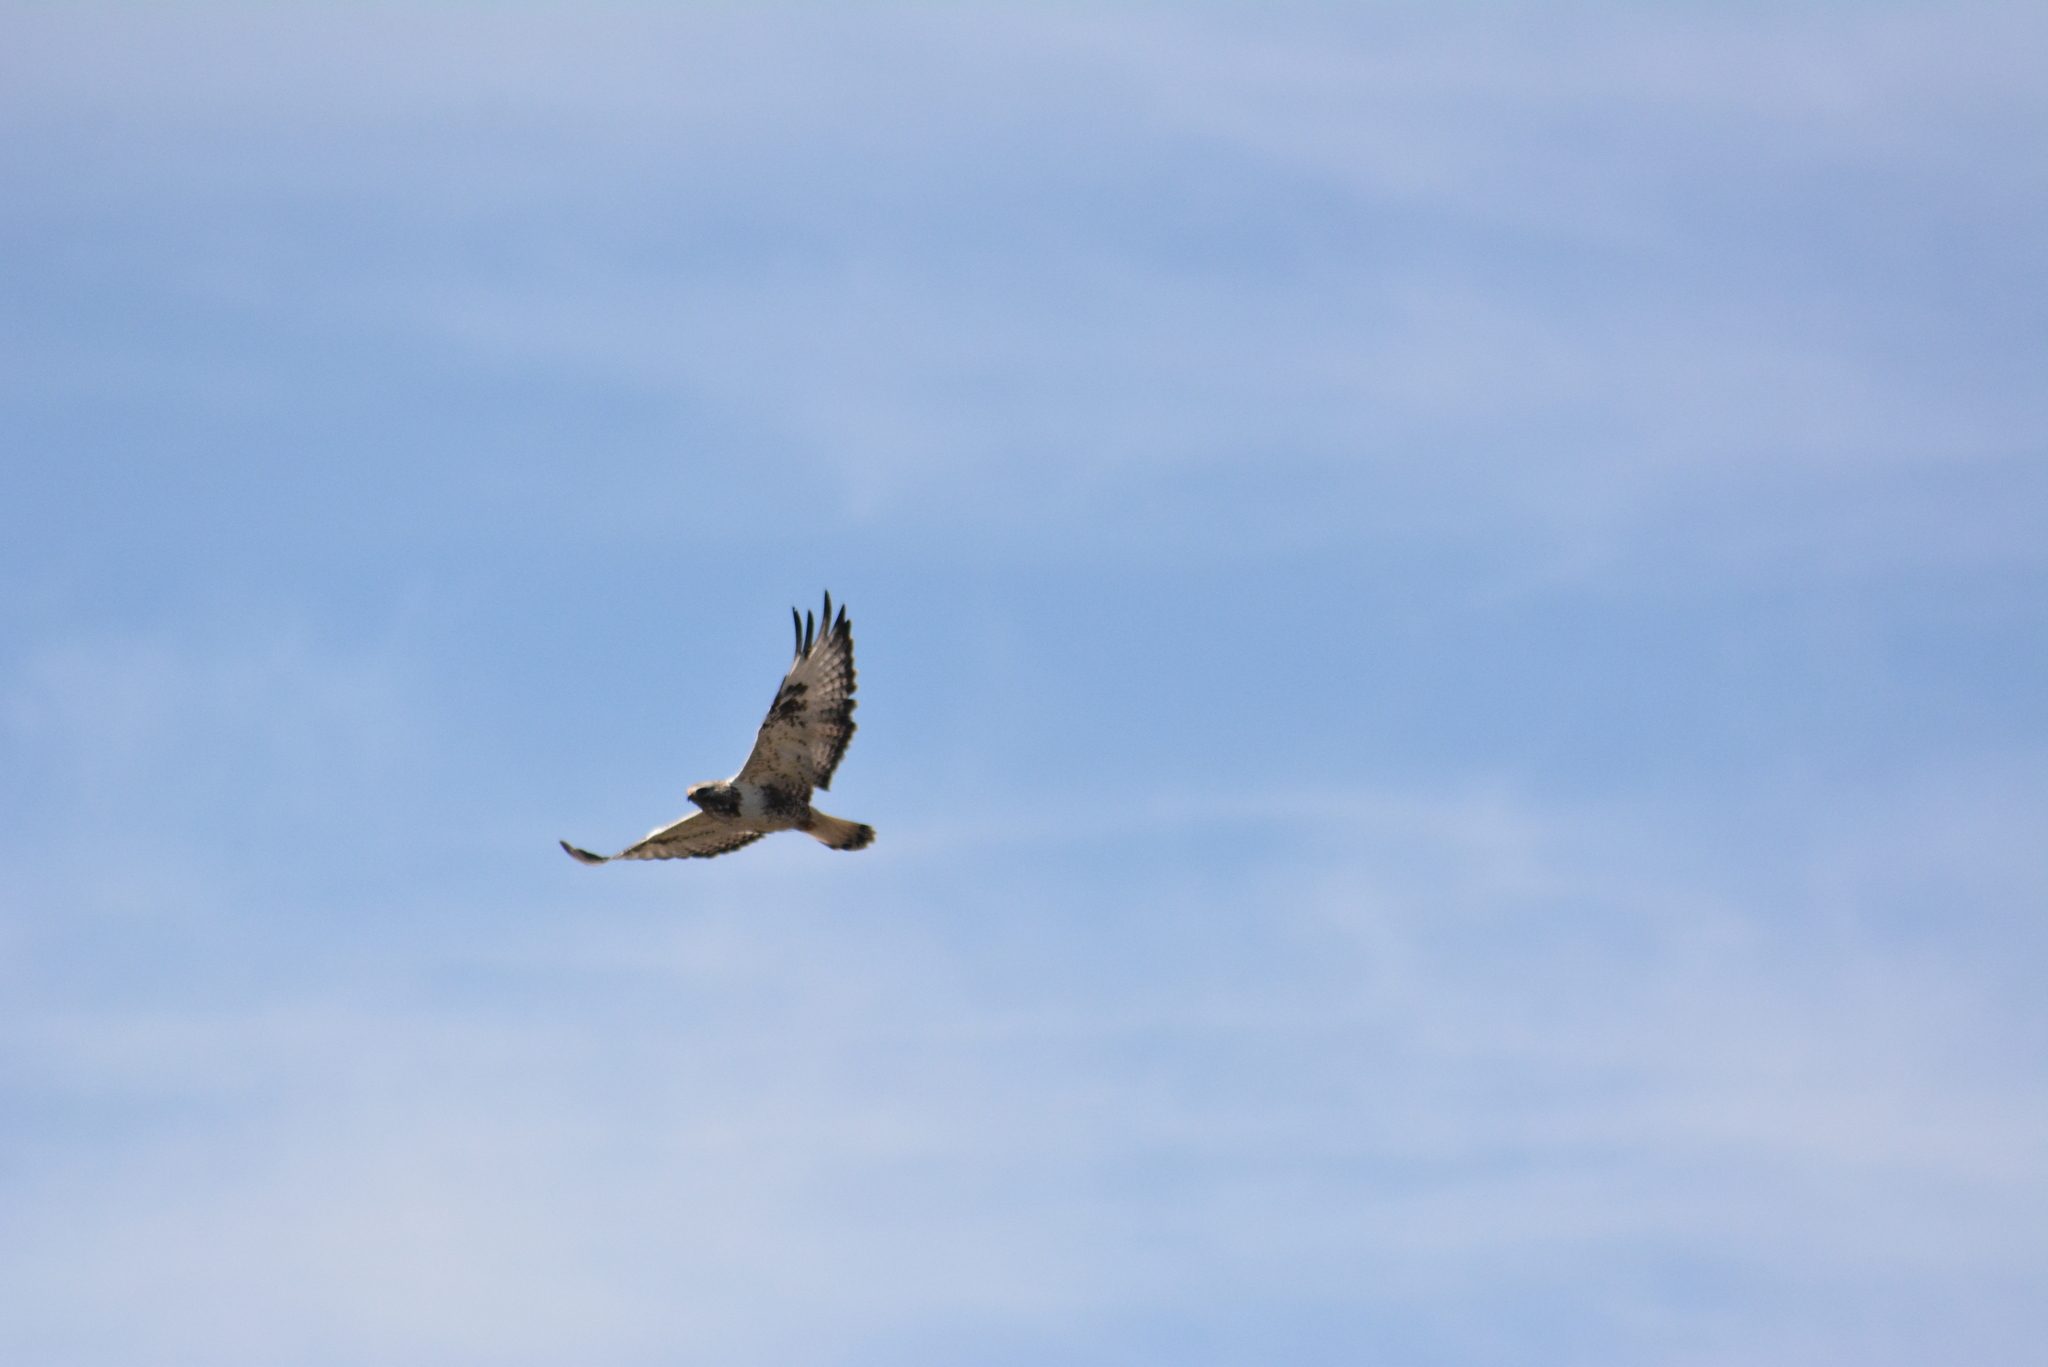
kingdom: Animalia
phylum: Chordata
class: Aves
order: Accipitriformes
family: Accipitridae
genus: Buteo
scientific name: Buteo lagopus
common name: Rough-legged buzzard
